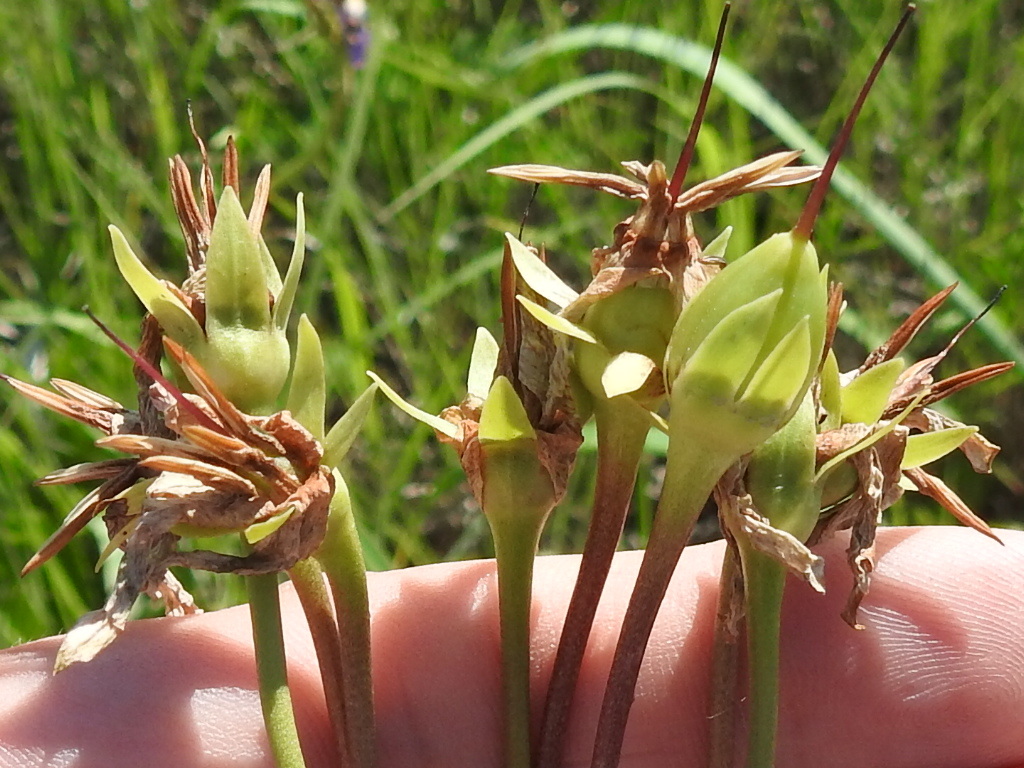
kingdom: Plantae
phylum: Tracheophyta
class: Magnoliopsida
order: Ericales
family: Primulaceae
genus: Dodecatheon
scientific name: Dodecatheon meadia
